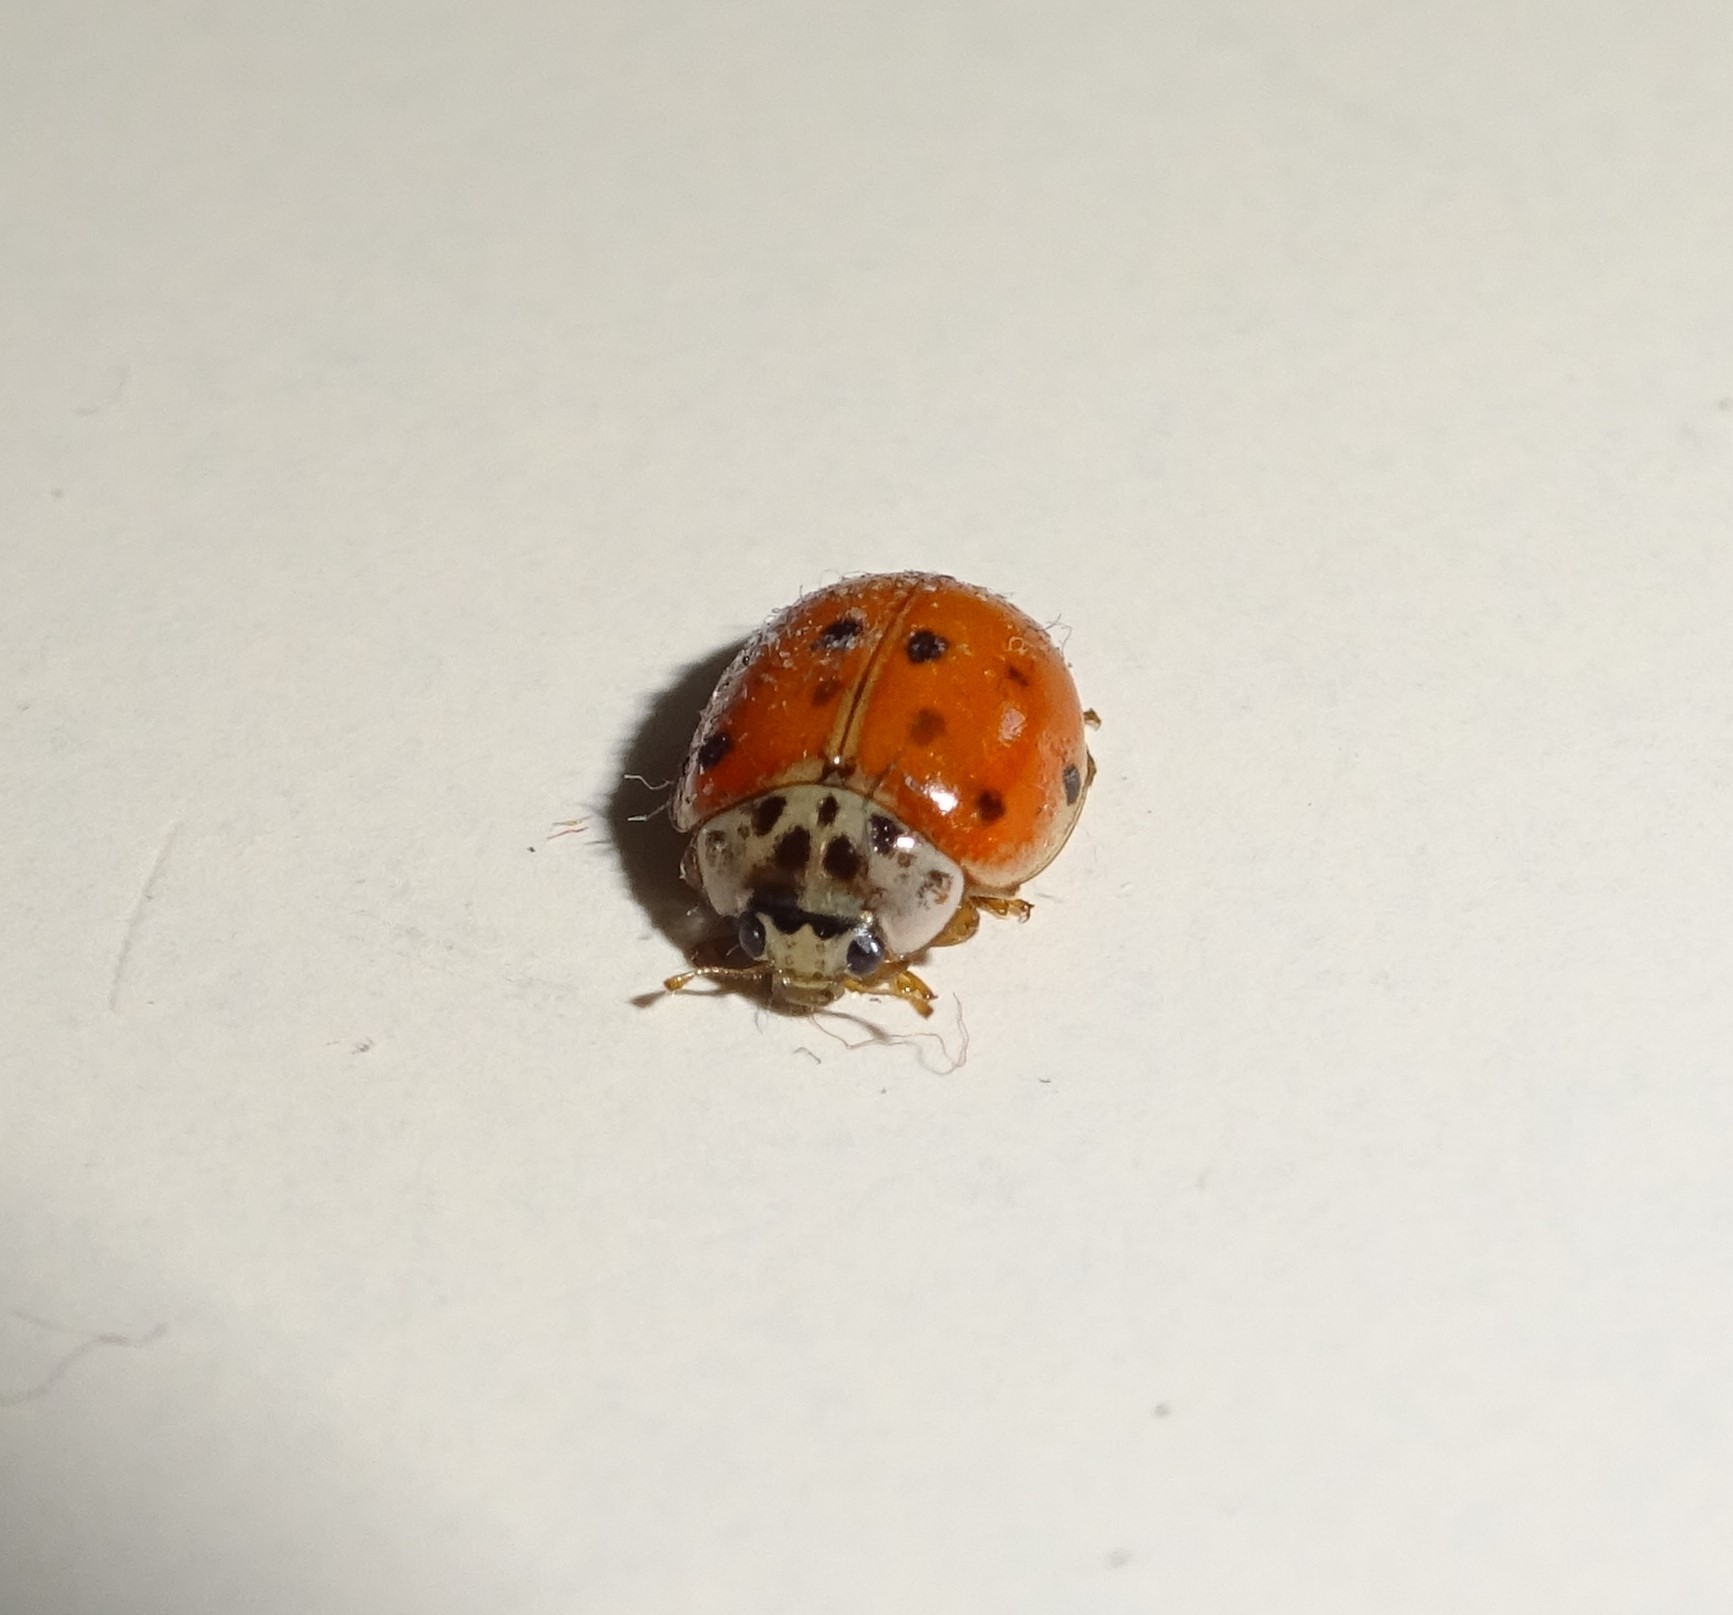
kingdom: Animalia
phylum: Arthropoda
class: Insecta
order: Coleoptera
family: Coccinellidae
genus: Adalia
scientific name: Adalia decempunctata
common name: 10-spot ladybird
